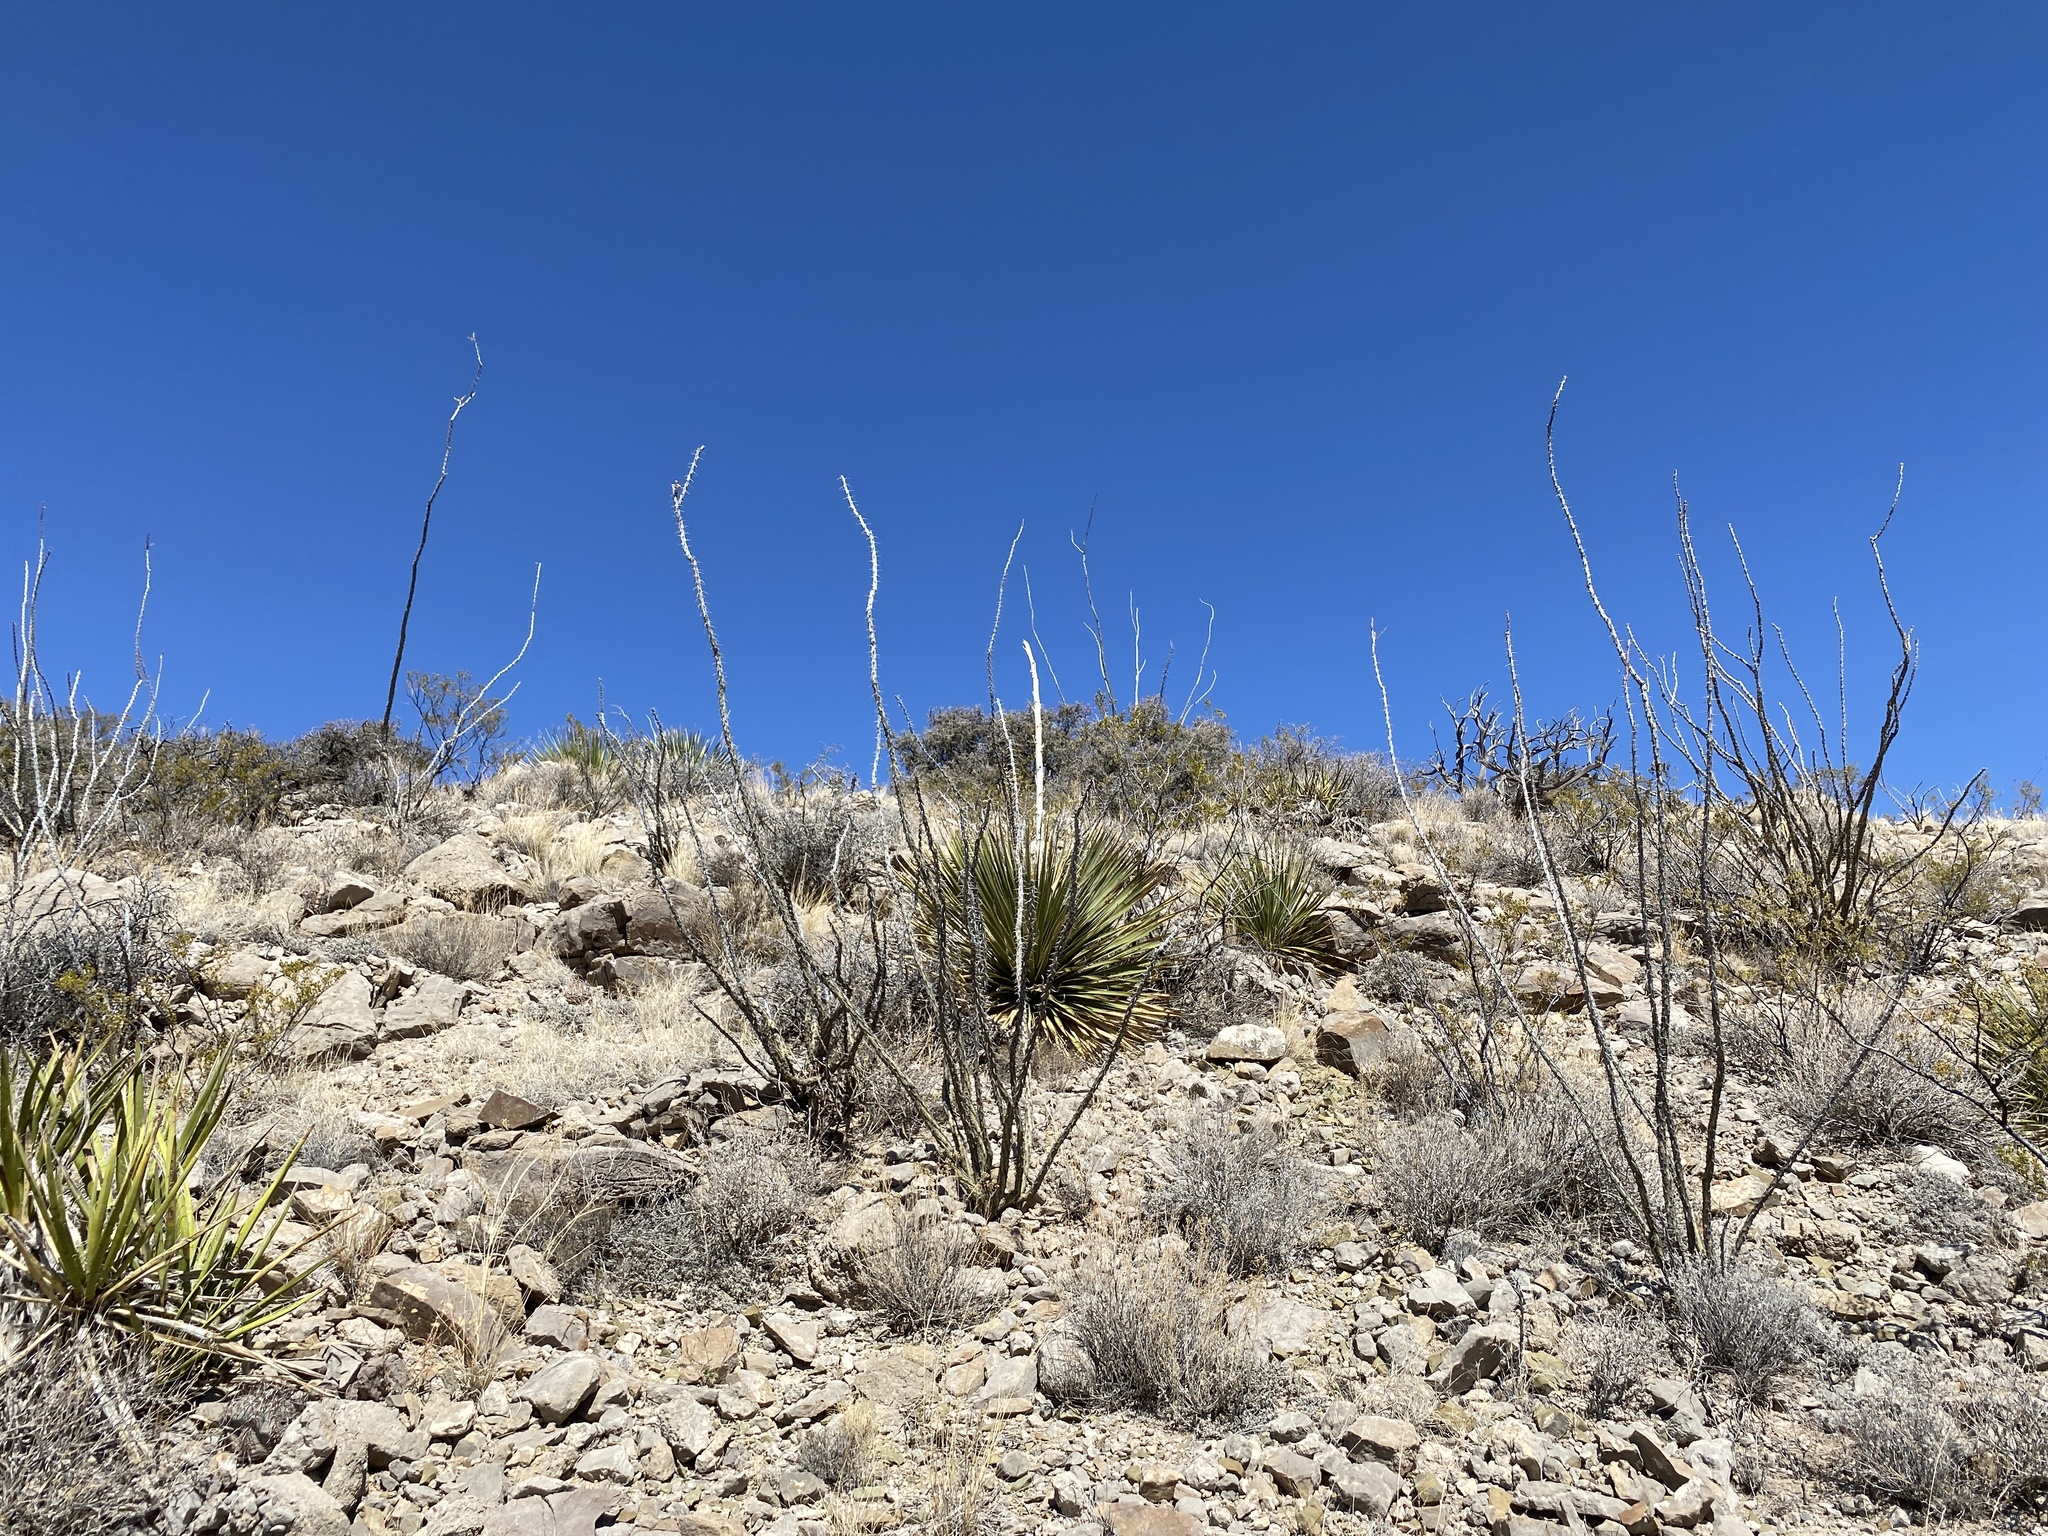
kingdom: Plantae
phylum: Tracheophyta
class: Magnoliopsida
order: Ericales
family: Fouquieriaceae
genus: Fouquieria
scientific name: Fouquieria splendens
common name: Vine-cactus
